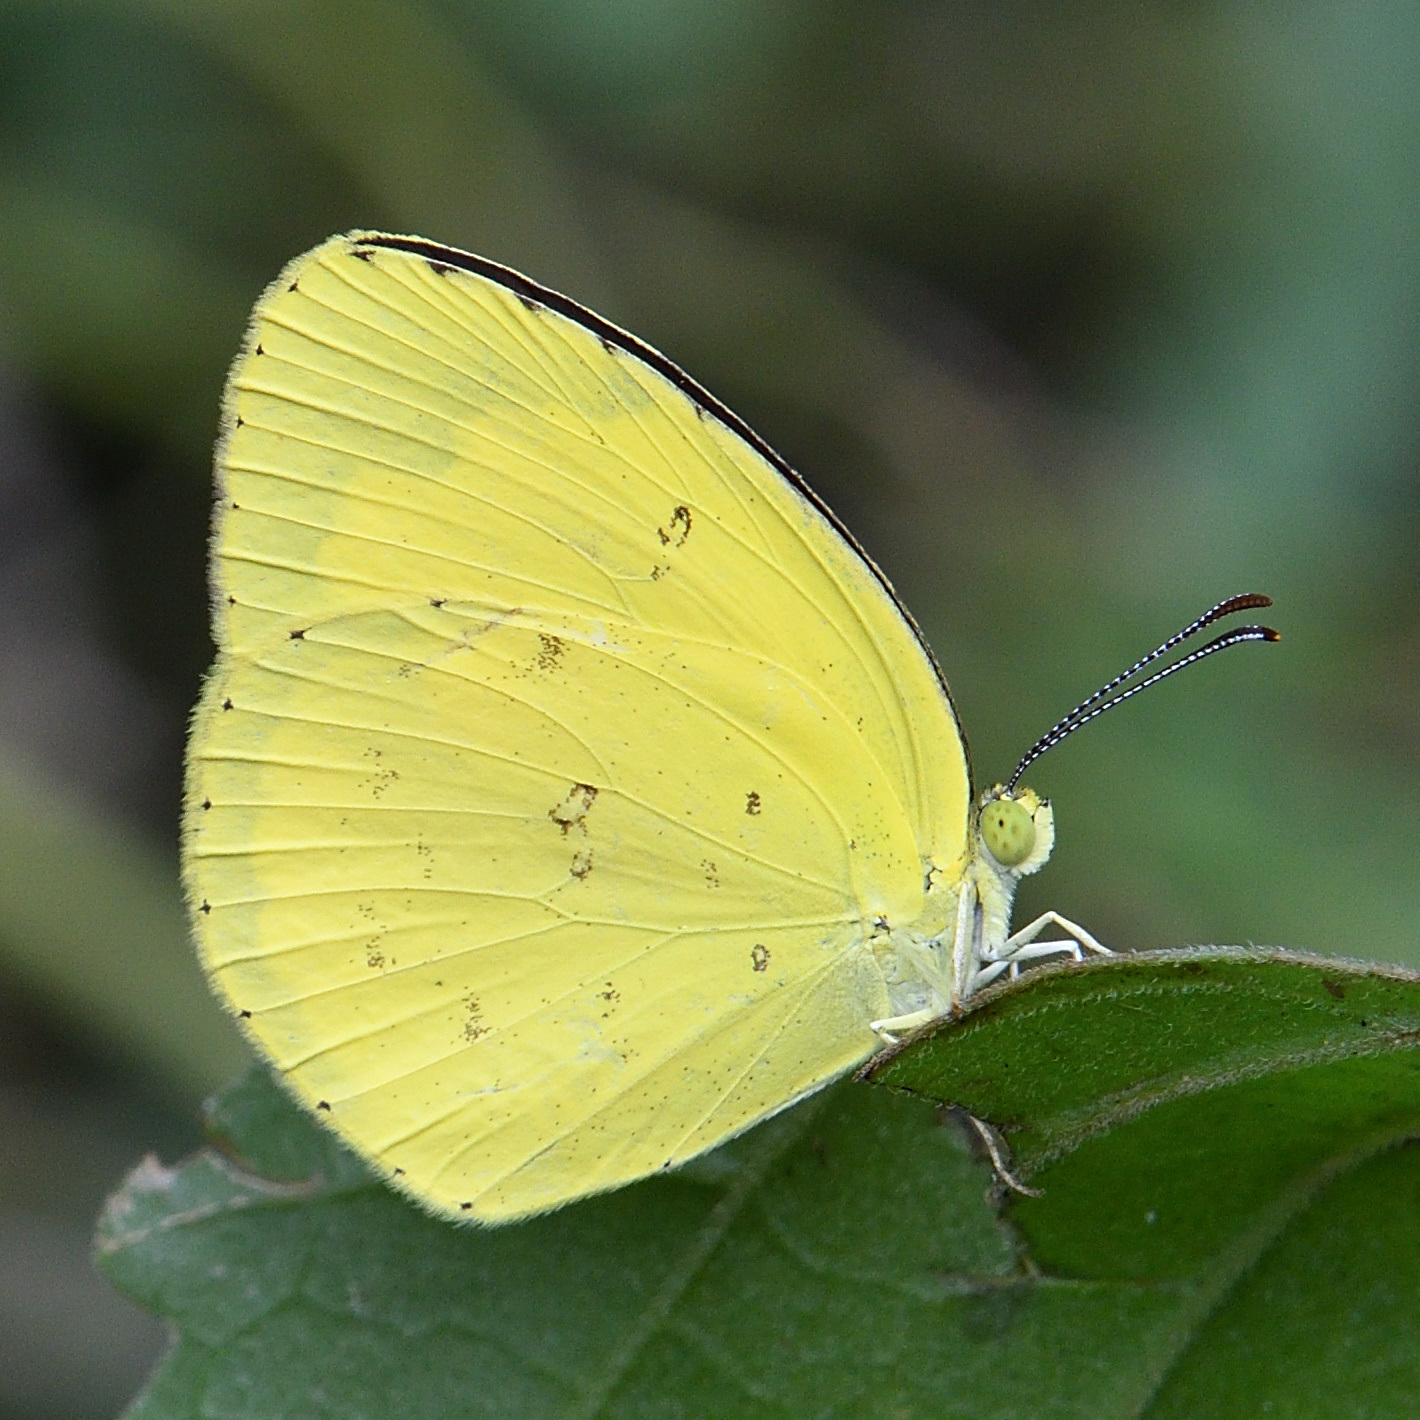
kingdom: Animalia
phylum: Arthropoda
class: Insecta
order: Lepidoptera
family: Pieridae
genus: Eurema
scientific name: Eurema hecabe
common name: Pale grass yellow
